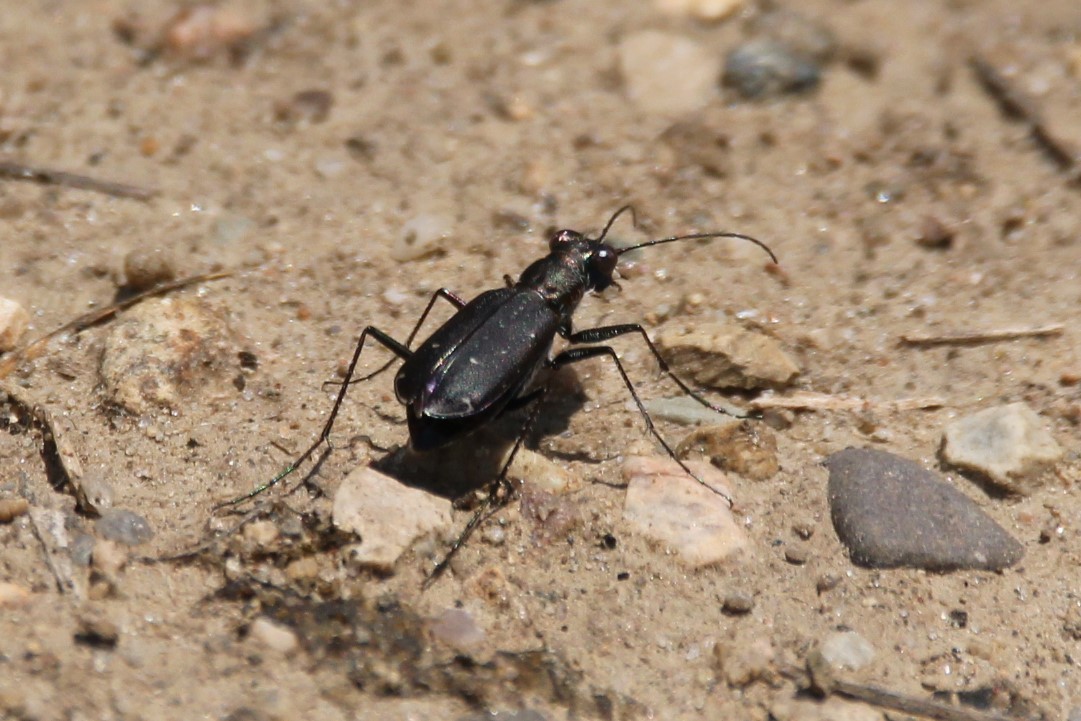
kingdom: Animalia
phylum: Arthropoda
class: Insecta
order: Coleoptera
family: Carabidae
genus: Cicindela
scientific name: Cicindela punctulata
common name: Punctured tiger beetle
